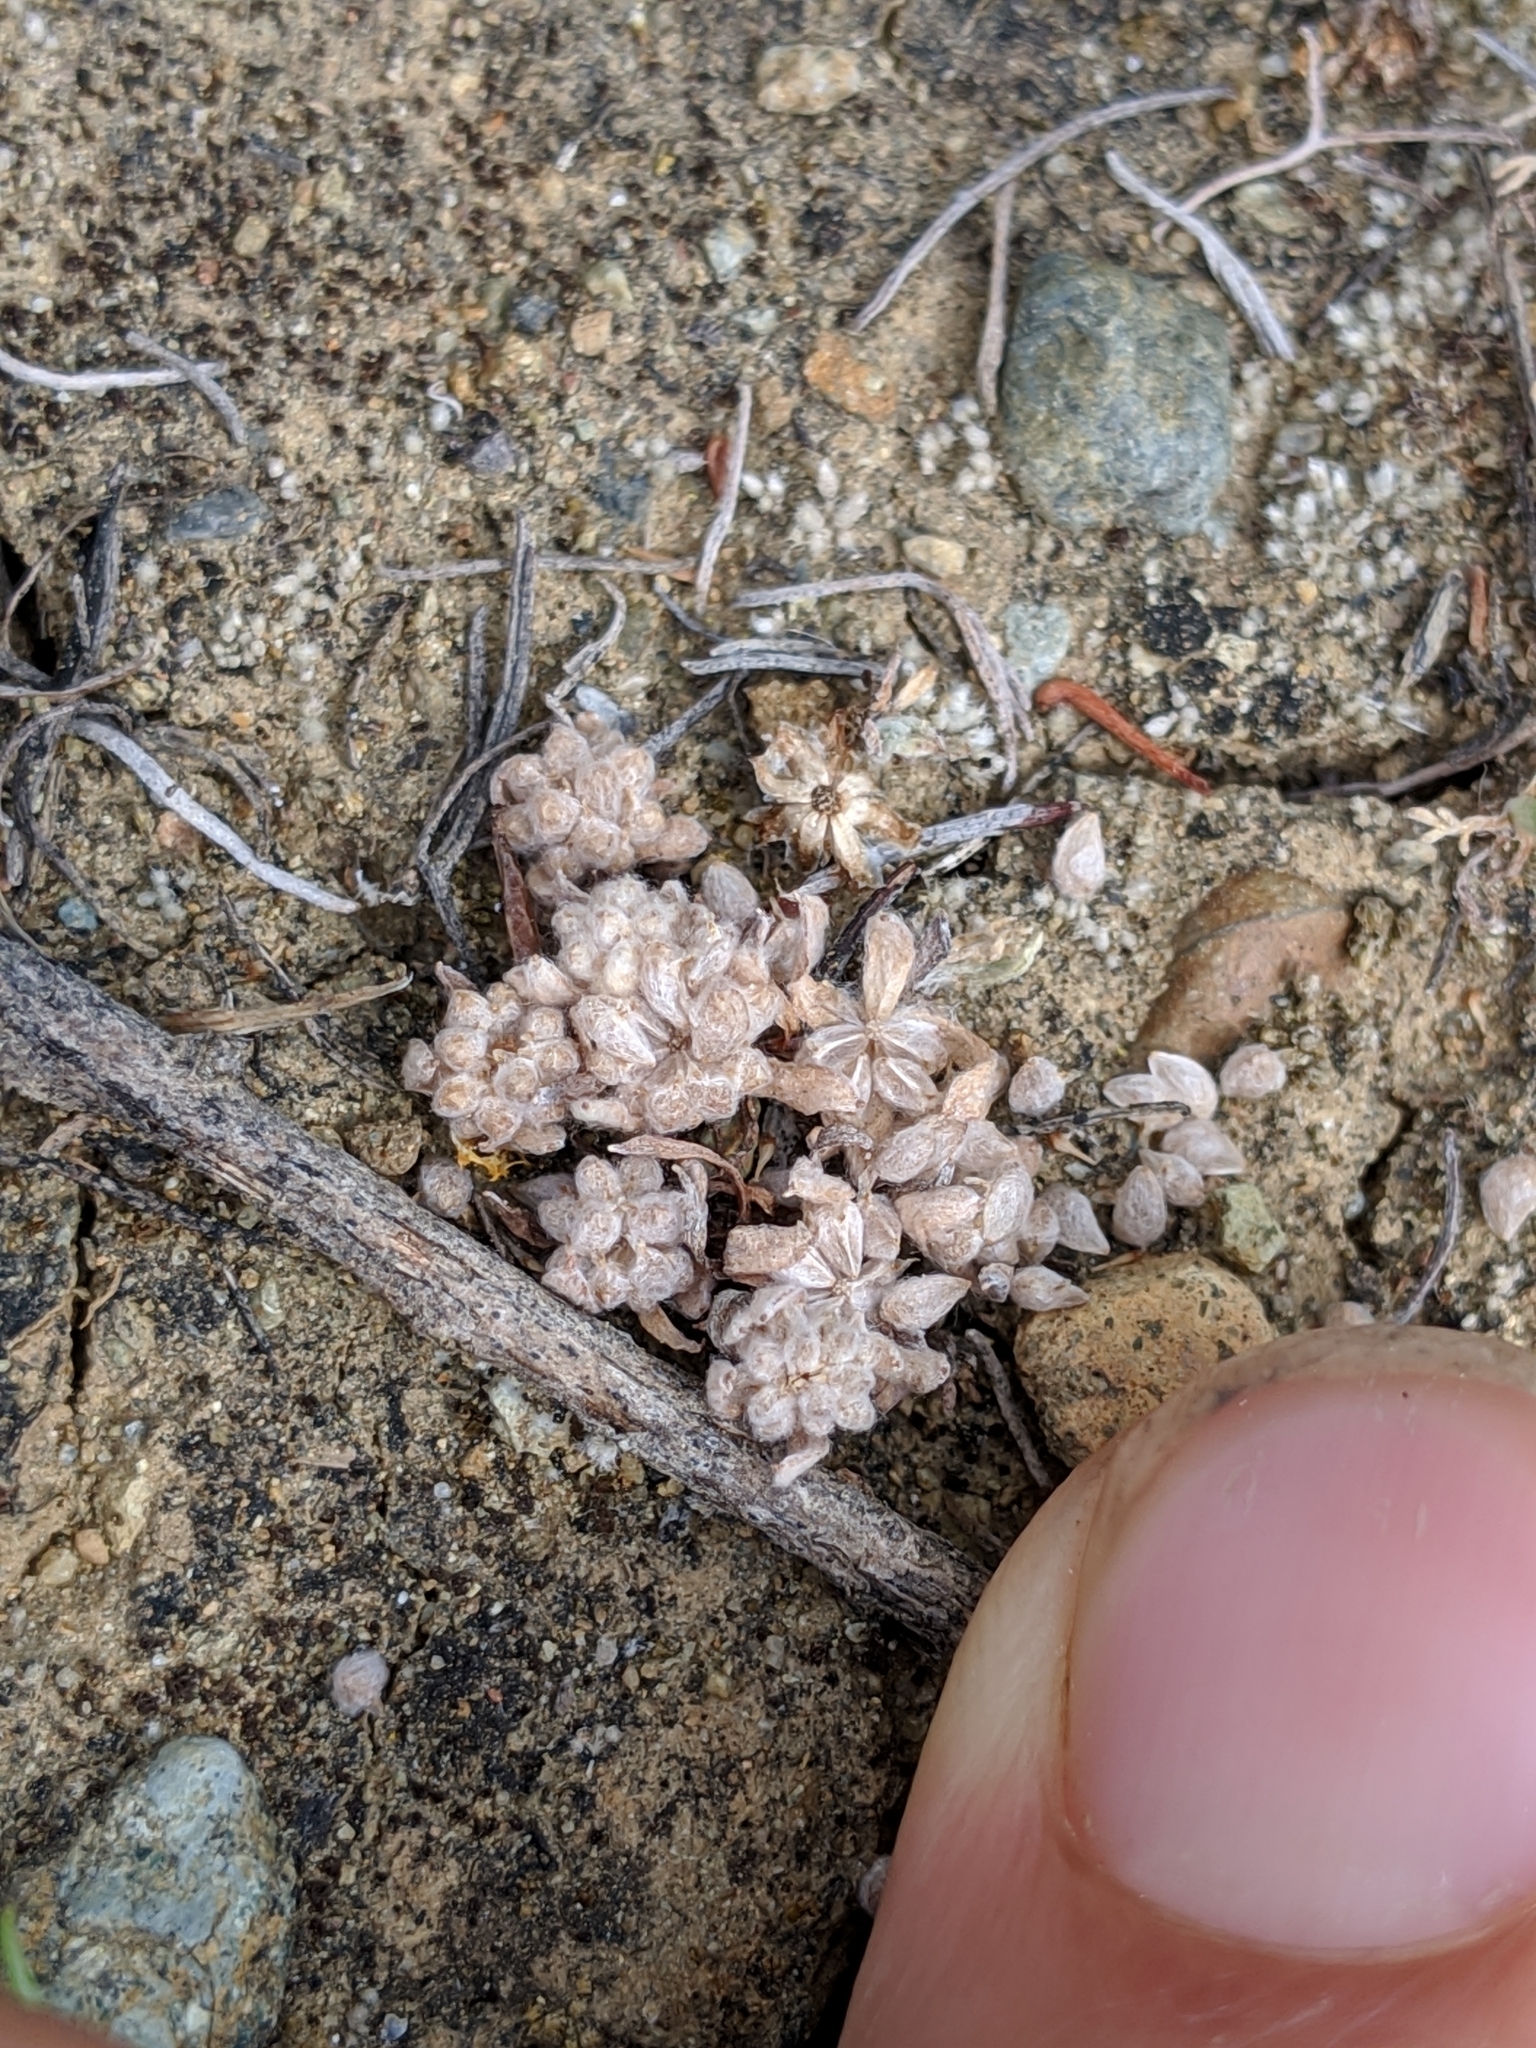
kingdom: Plantae
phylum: Tracheophyta
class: Magnoliopsida
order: Asterales
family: Asteraceae
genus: Psilocarphus
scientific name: Psilocarphus tenellus
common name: Slender woolly-marbles
